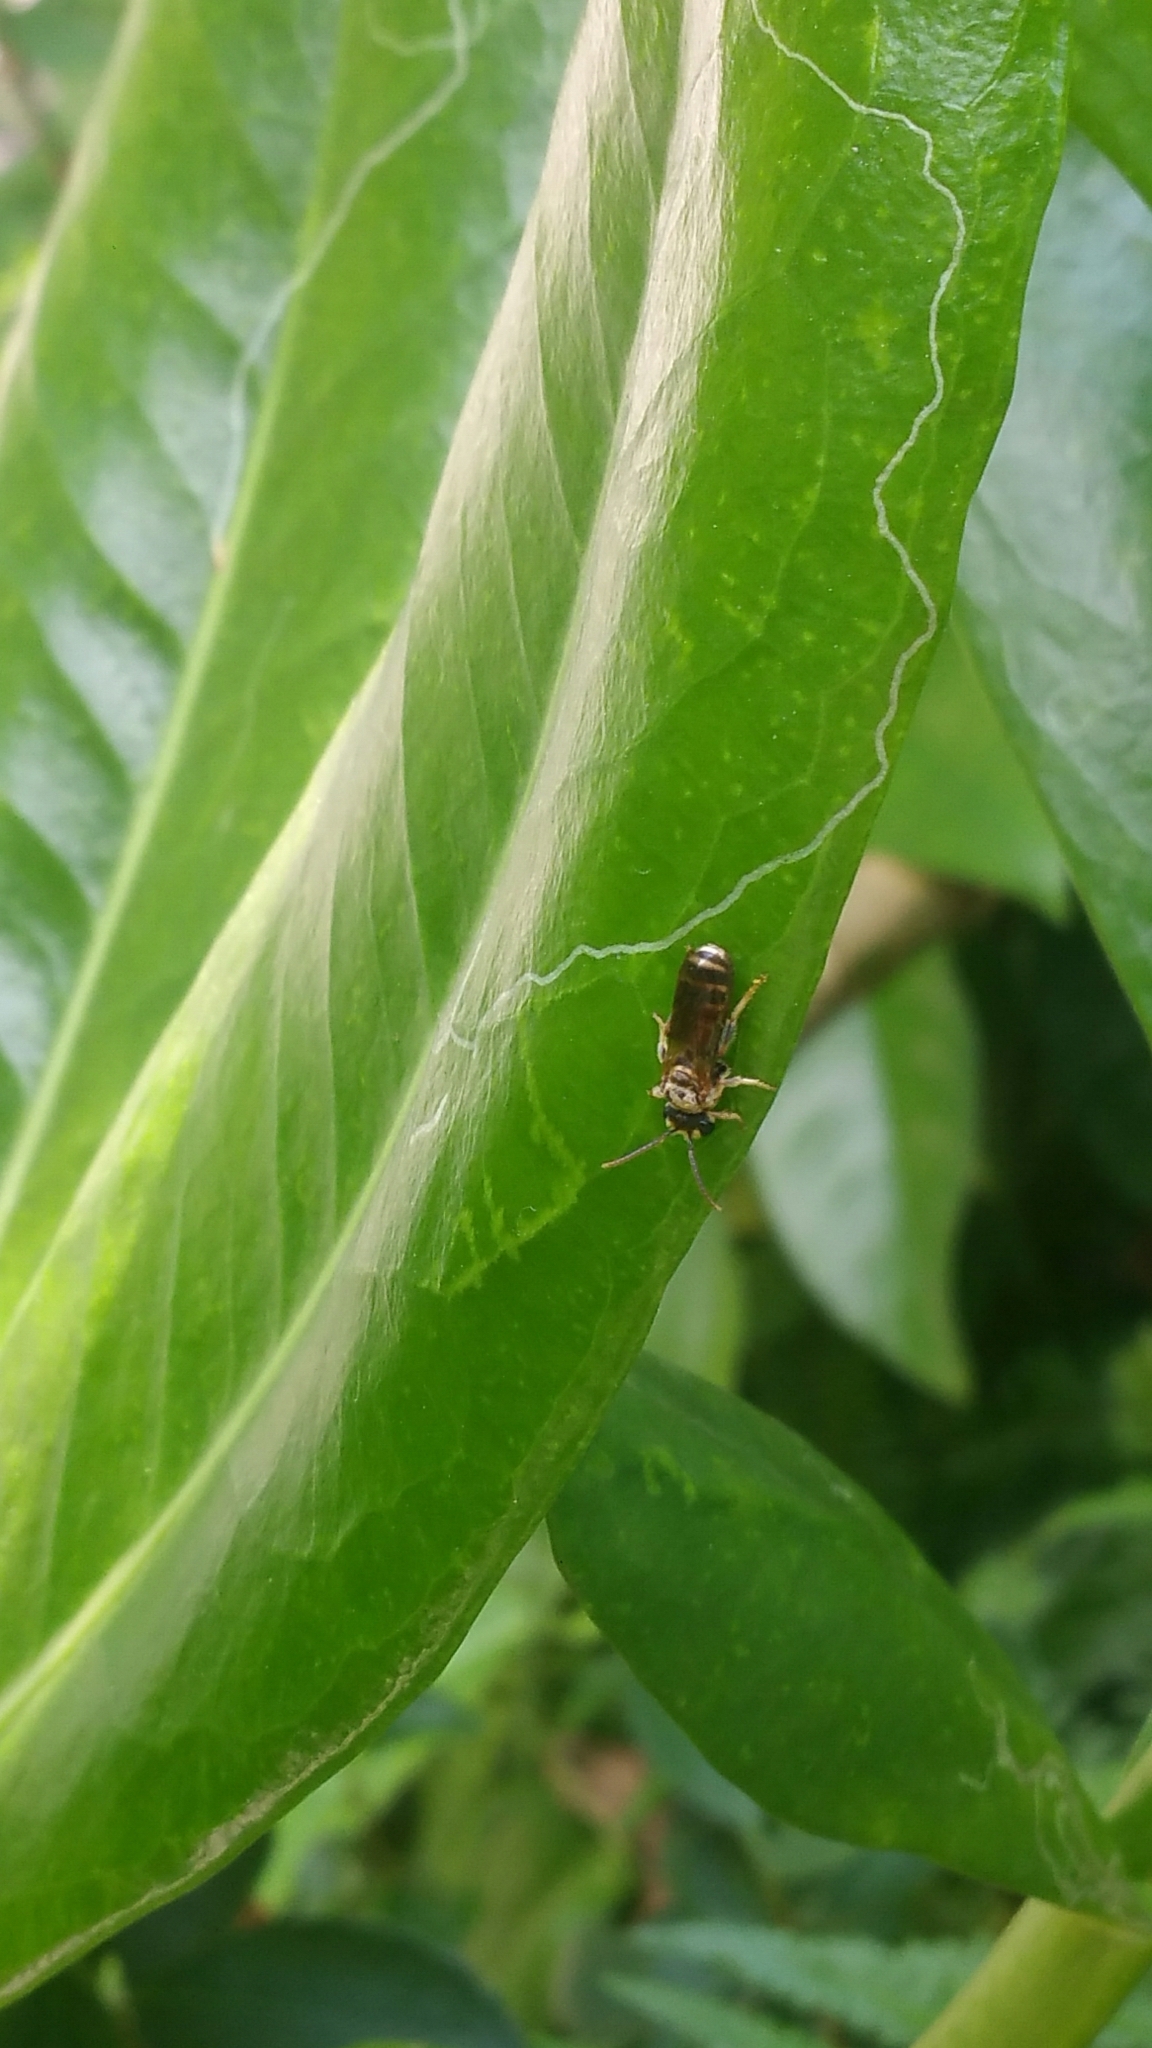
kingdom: Animalia
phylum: Arthropoda
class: Insecta
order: Hymenoptera
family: Halictidae
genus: Lipotriches
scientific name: Lipotriches ceratina
